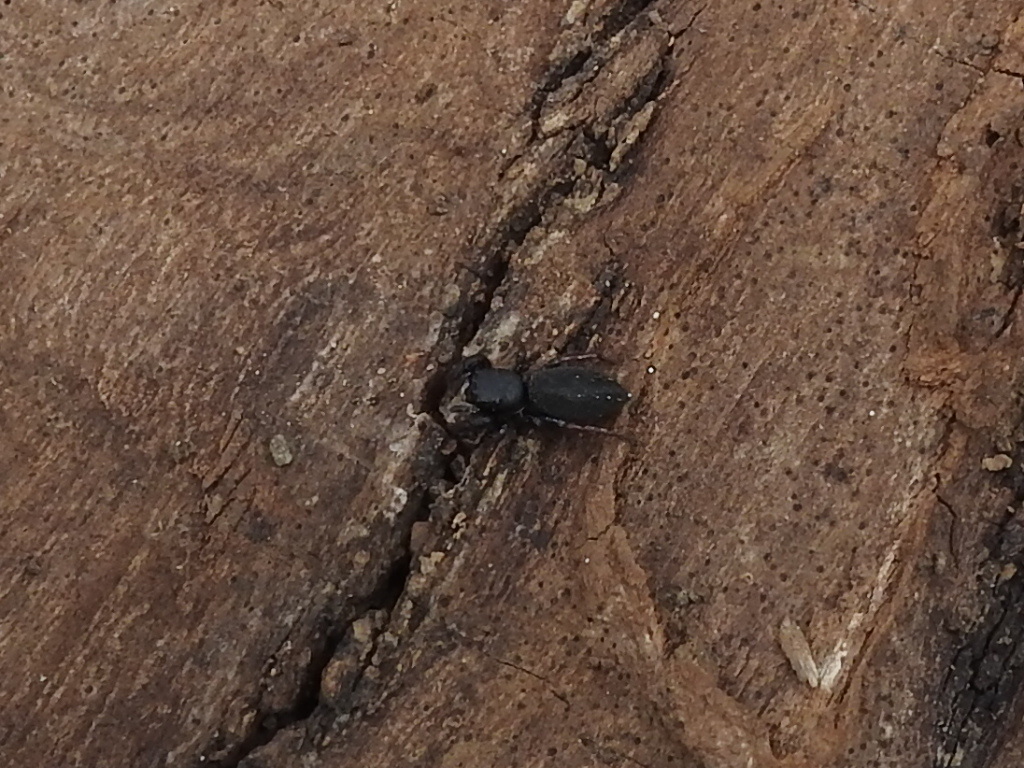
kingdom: Animalia
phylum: Arthropoda
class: Arachnida
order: Araneae
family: Salticidae
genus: Metacyrba
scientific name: Metacyrba taeniola
